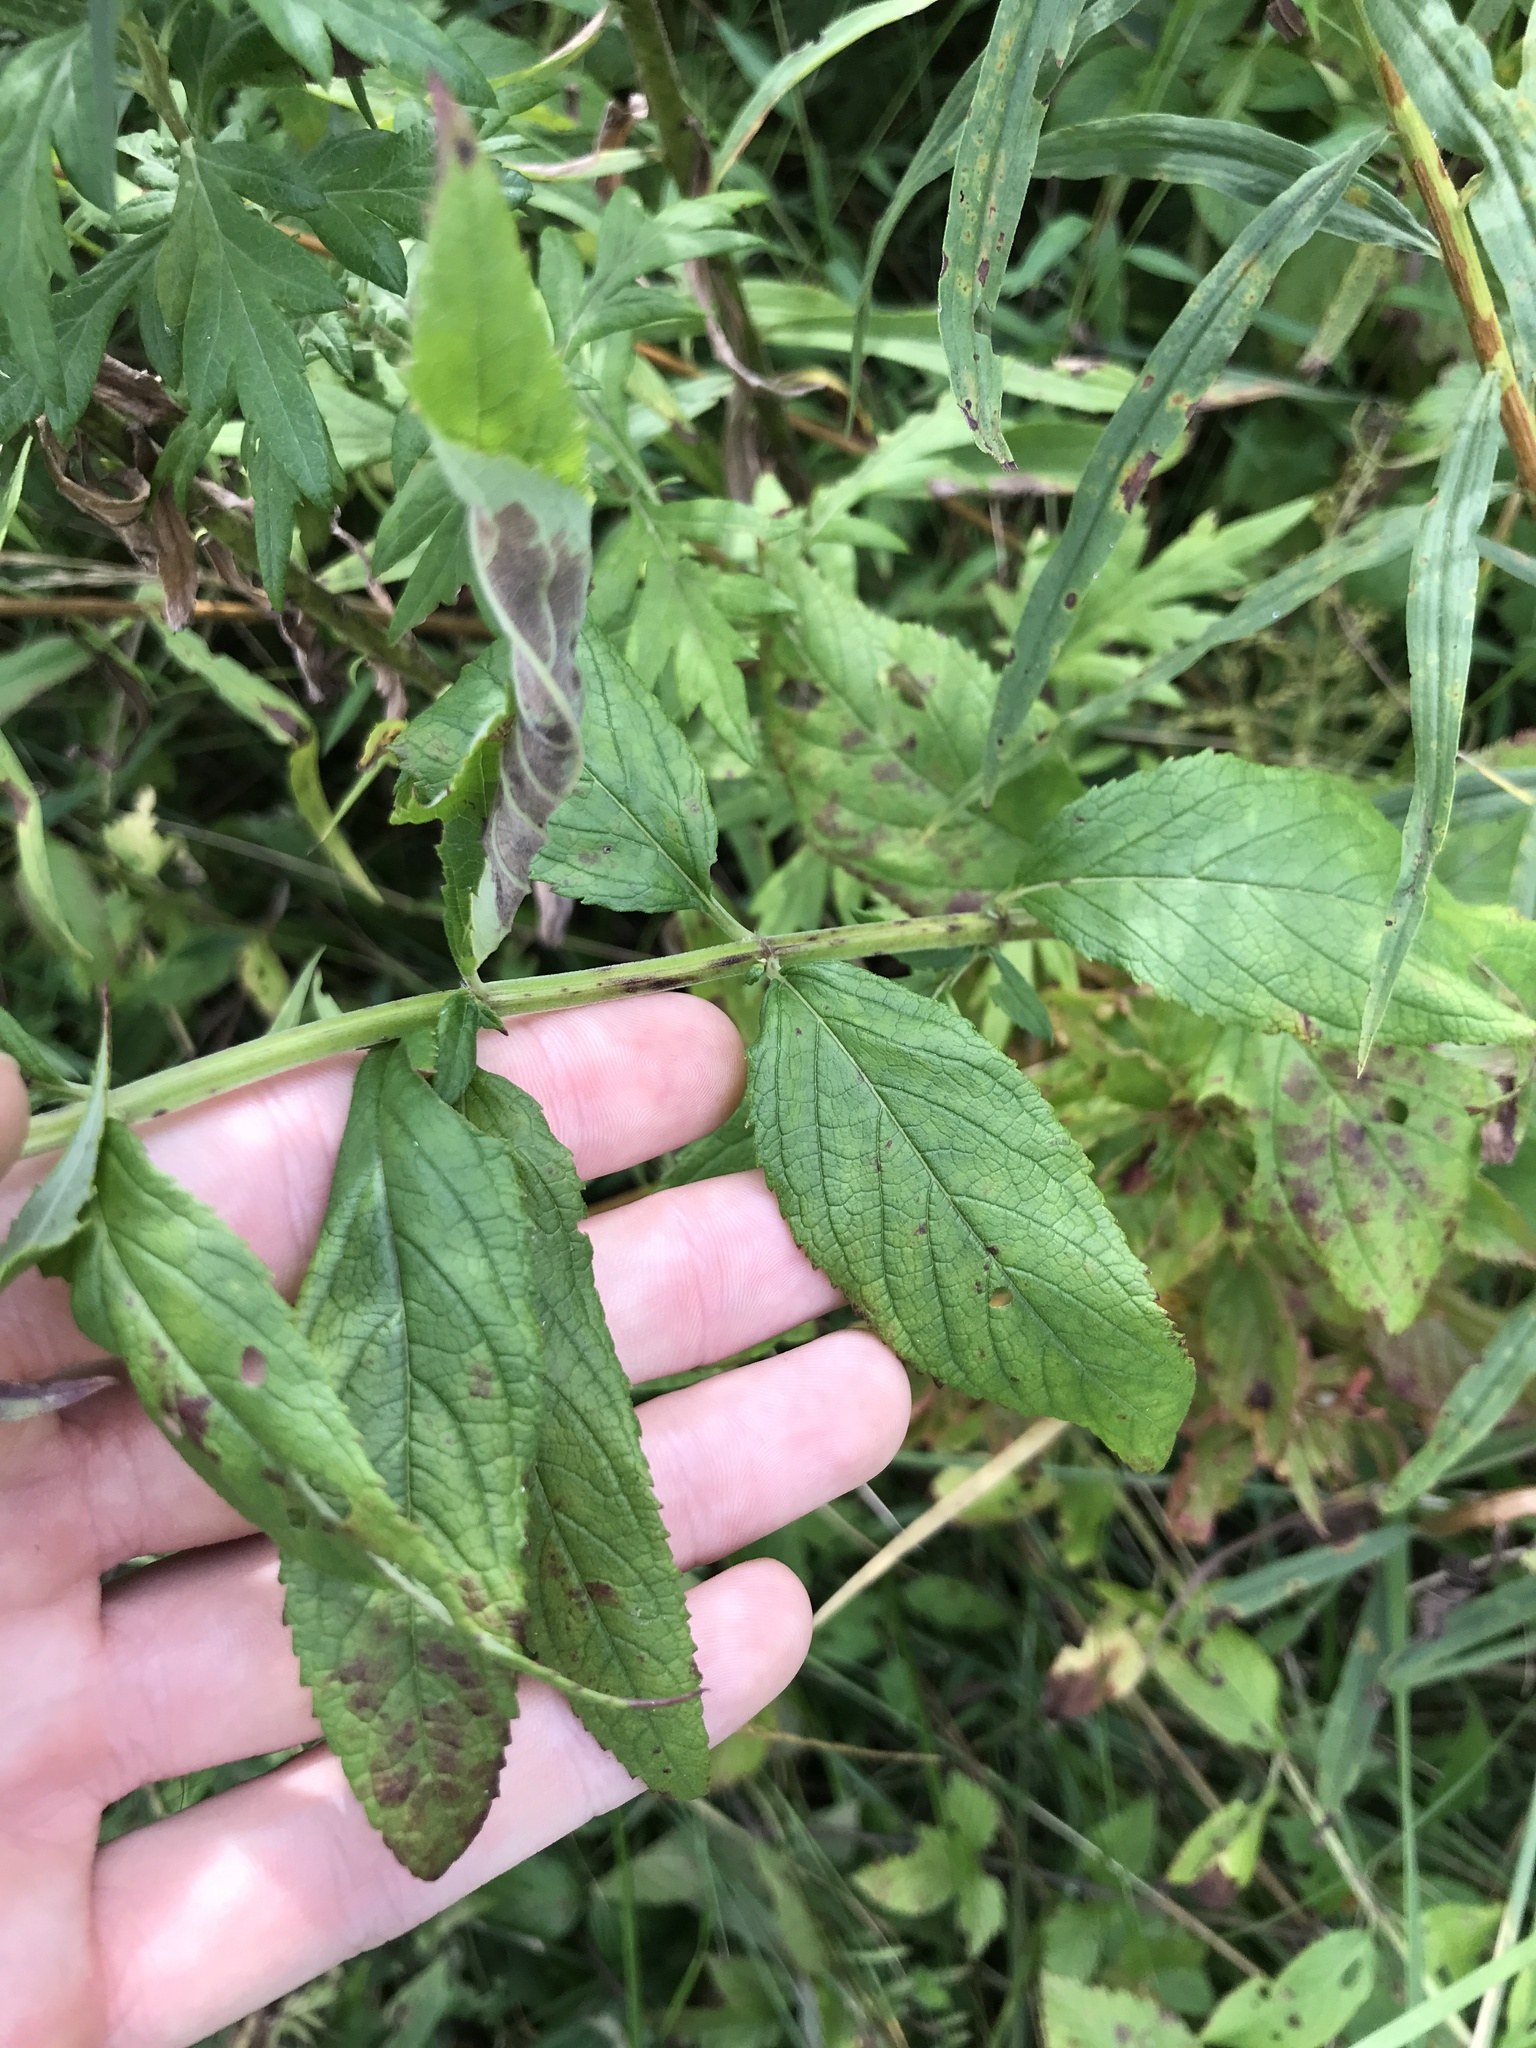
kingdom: Plantae
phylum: Tracheophyta
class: Magnoliopsida
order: Lamiales
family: Lamiaceae
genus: Teucrium
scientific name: Teucrium canadense
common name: American germander
